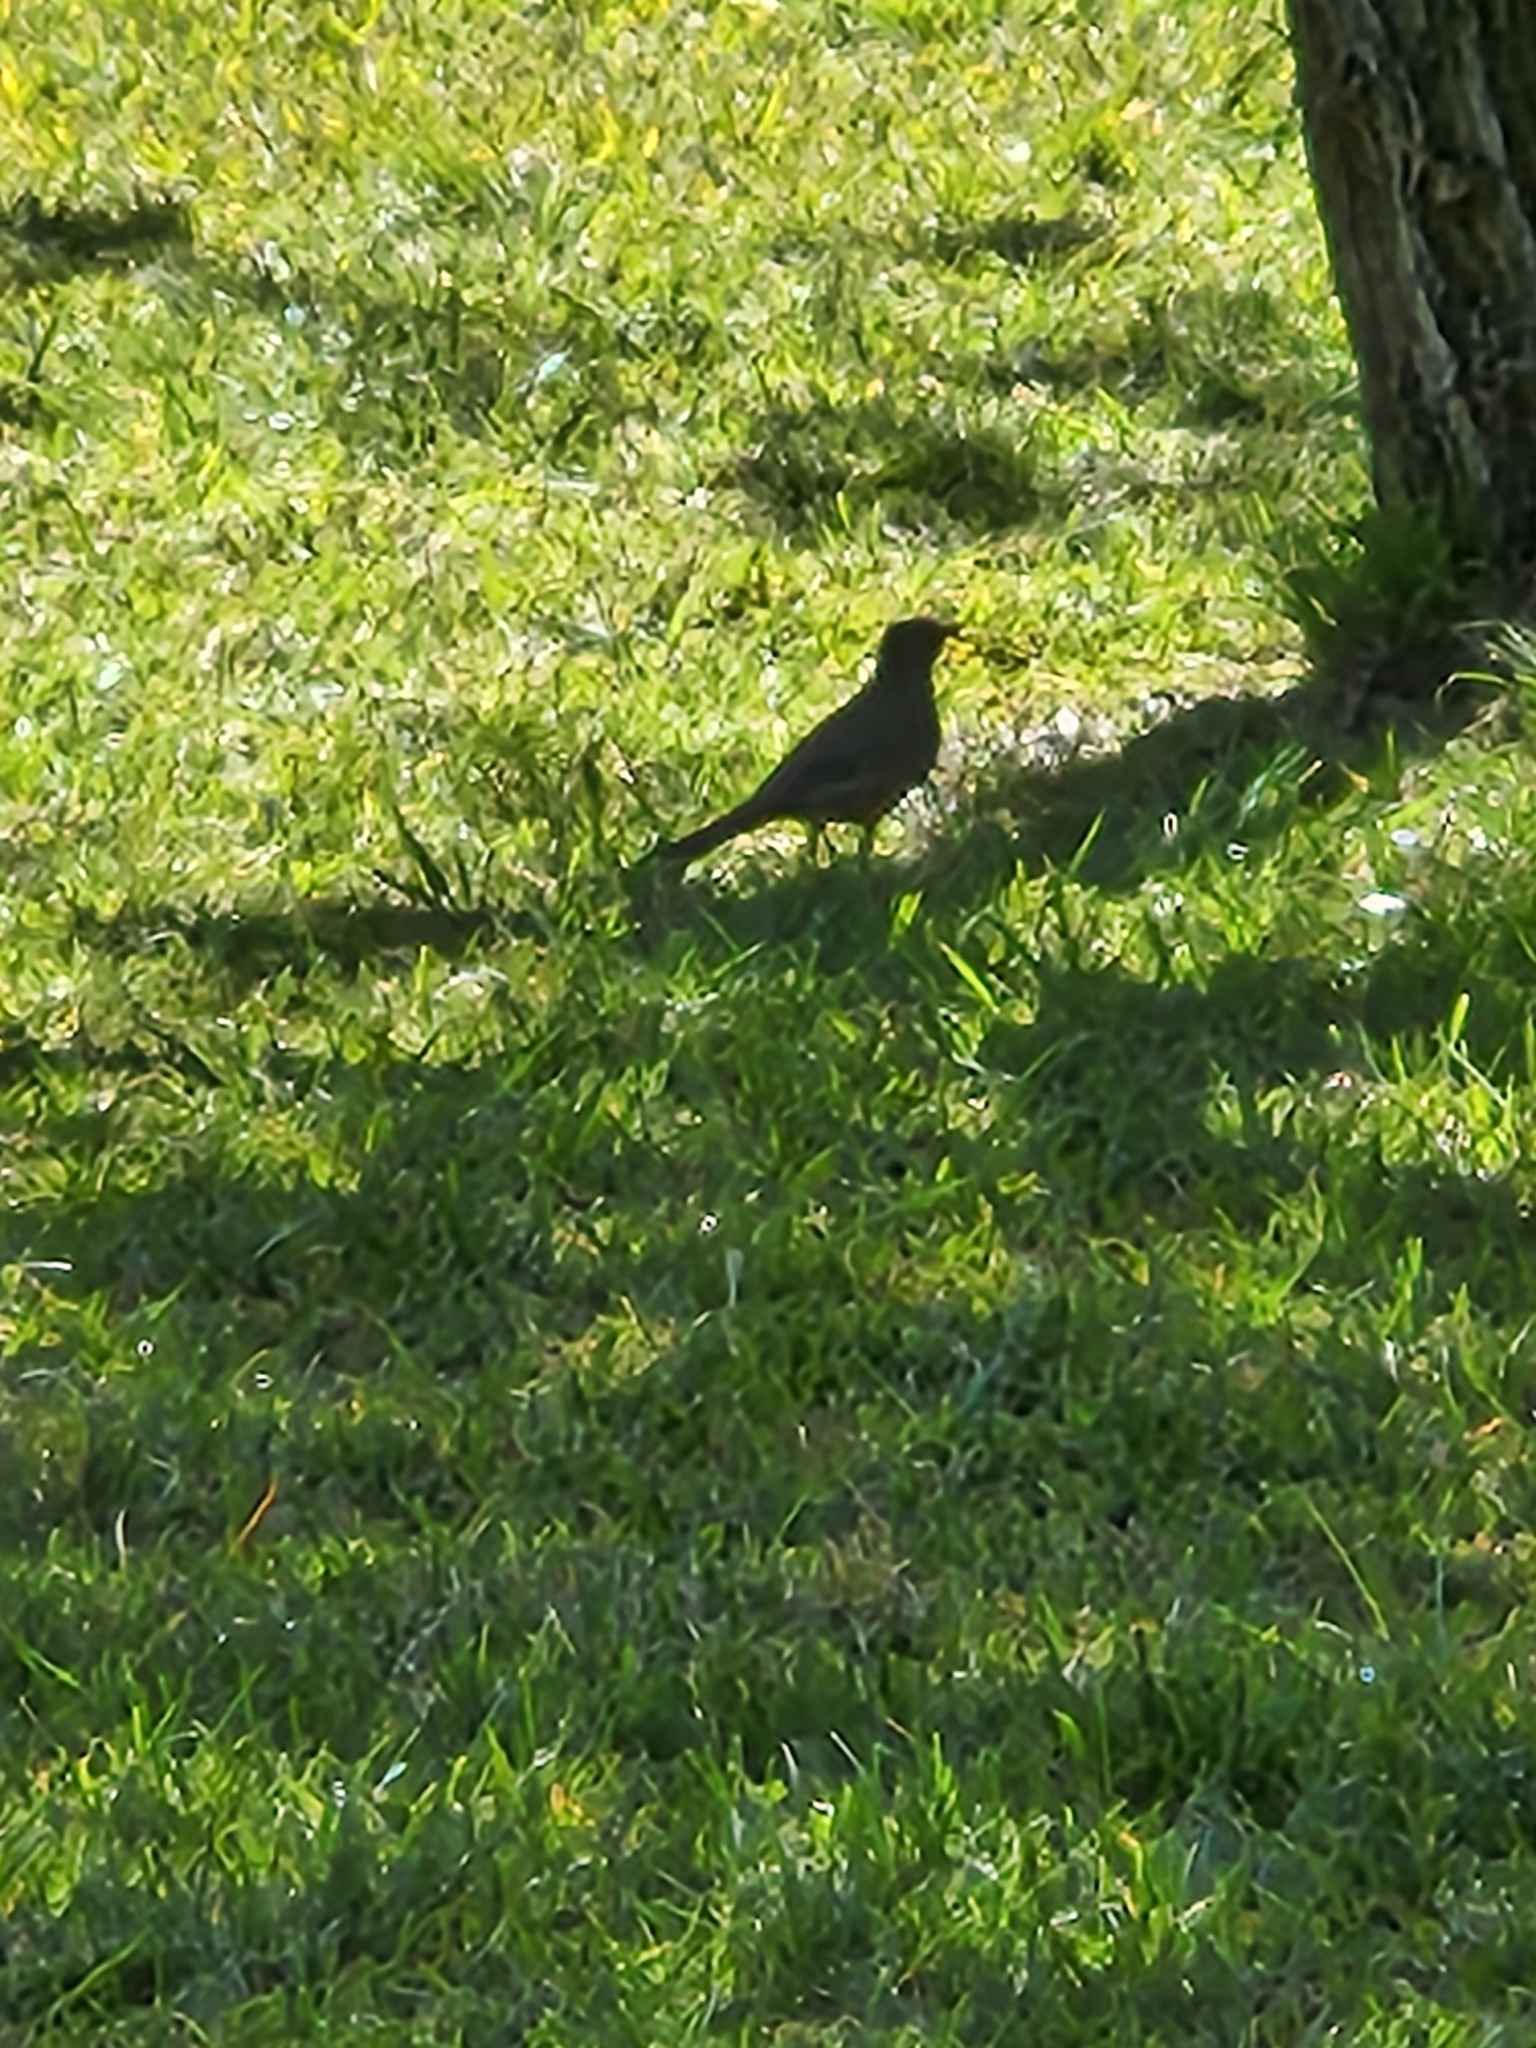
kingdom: Animalia
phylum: Chordata
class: Aves
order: Passeriformes
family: Turdidae
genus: Turdus
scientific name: Turdus migratorius
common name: American robin
